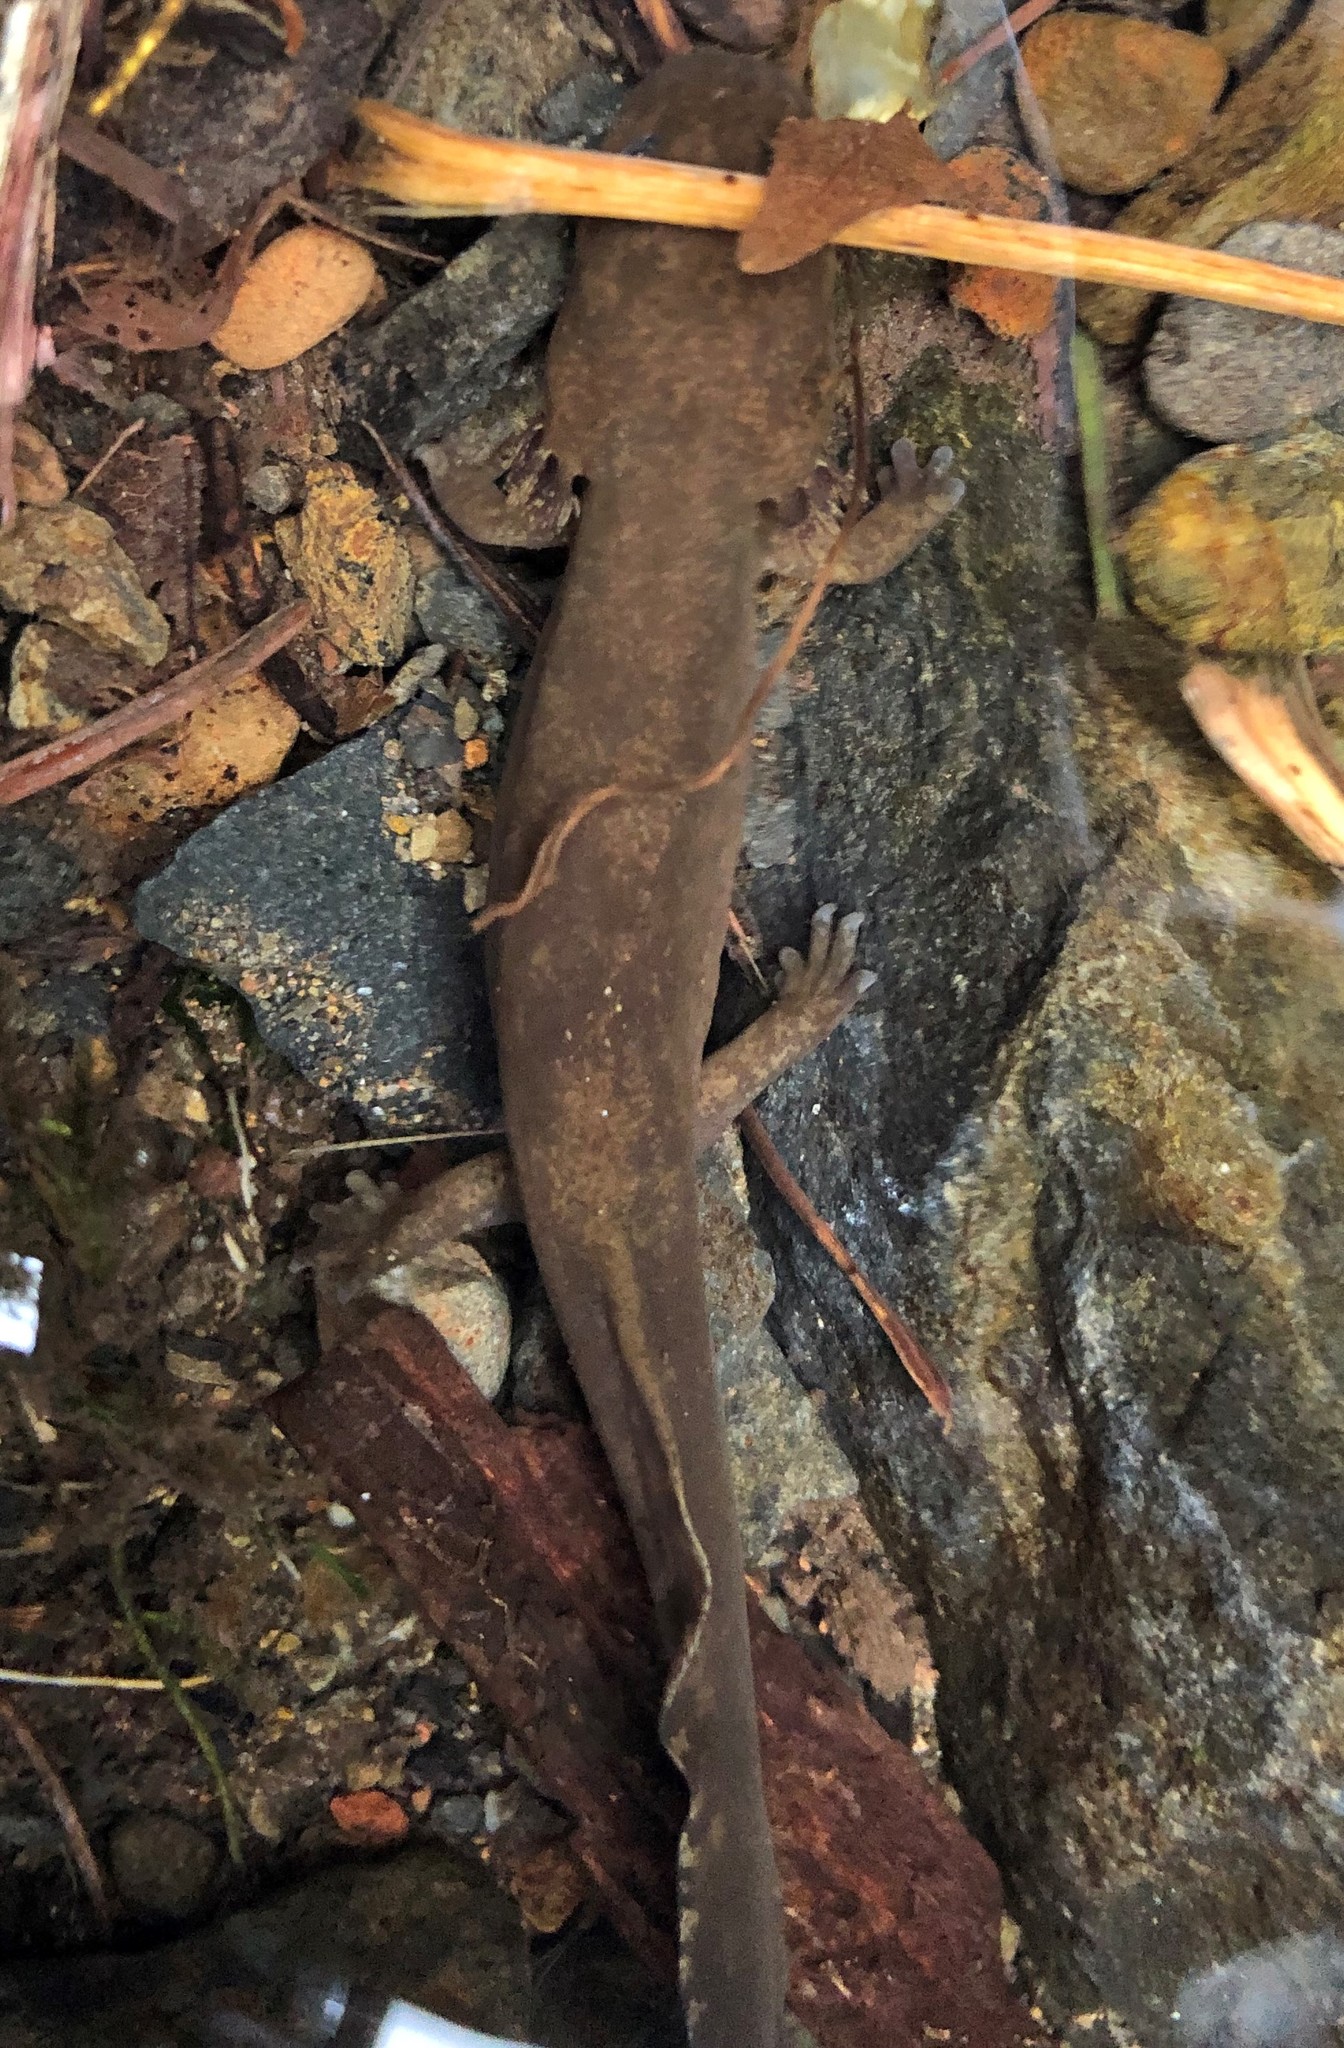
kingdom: Animalia
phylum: Chordata
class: Amphibia
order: Caudata
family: Ambystomatidae
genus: Dicamptodon
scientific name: Dicamptodon tenebrosus
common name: Coastal giant salamander
